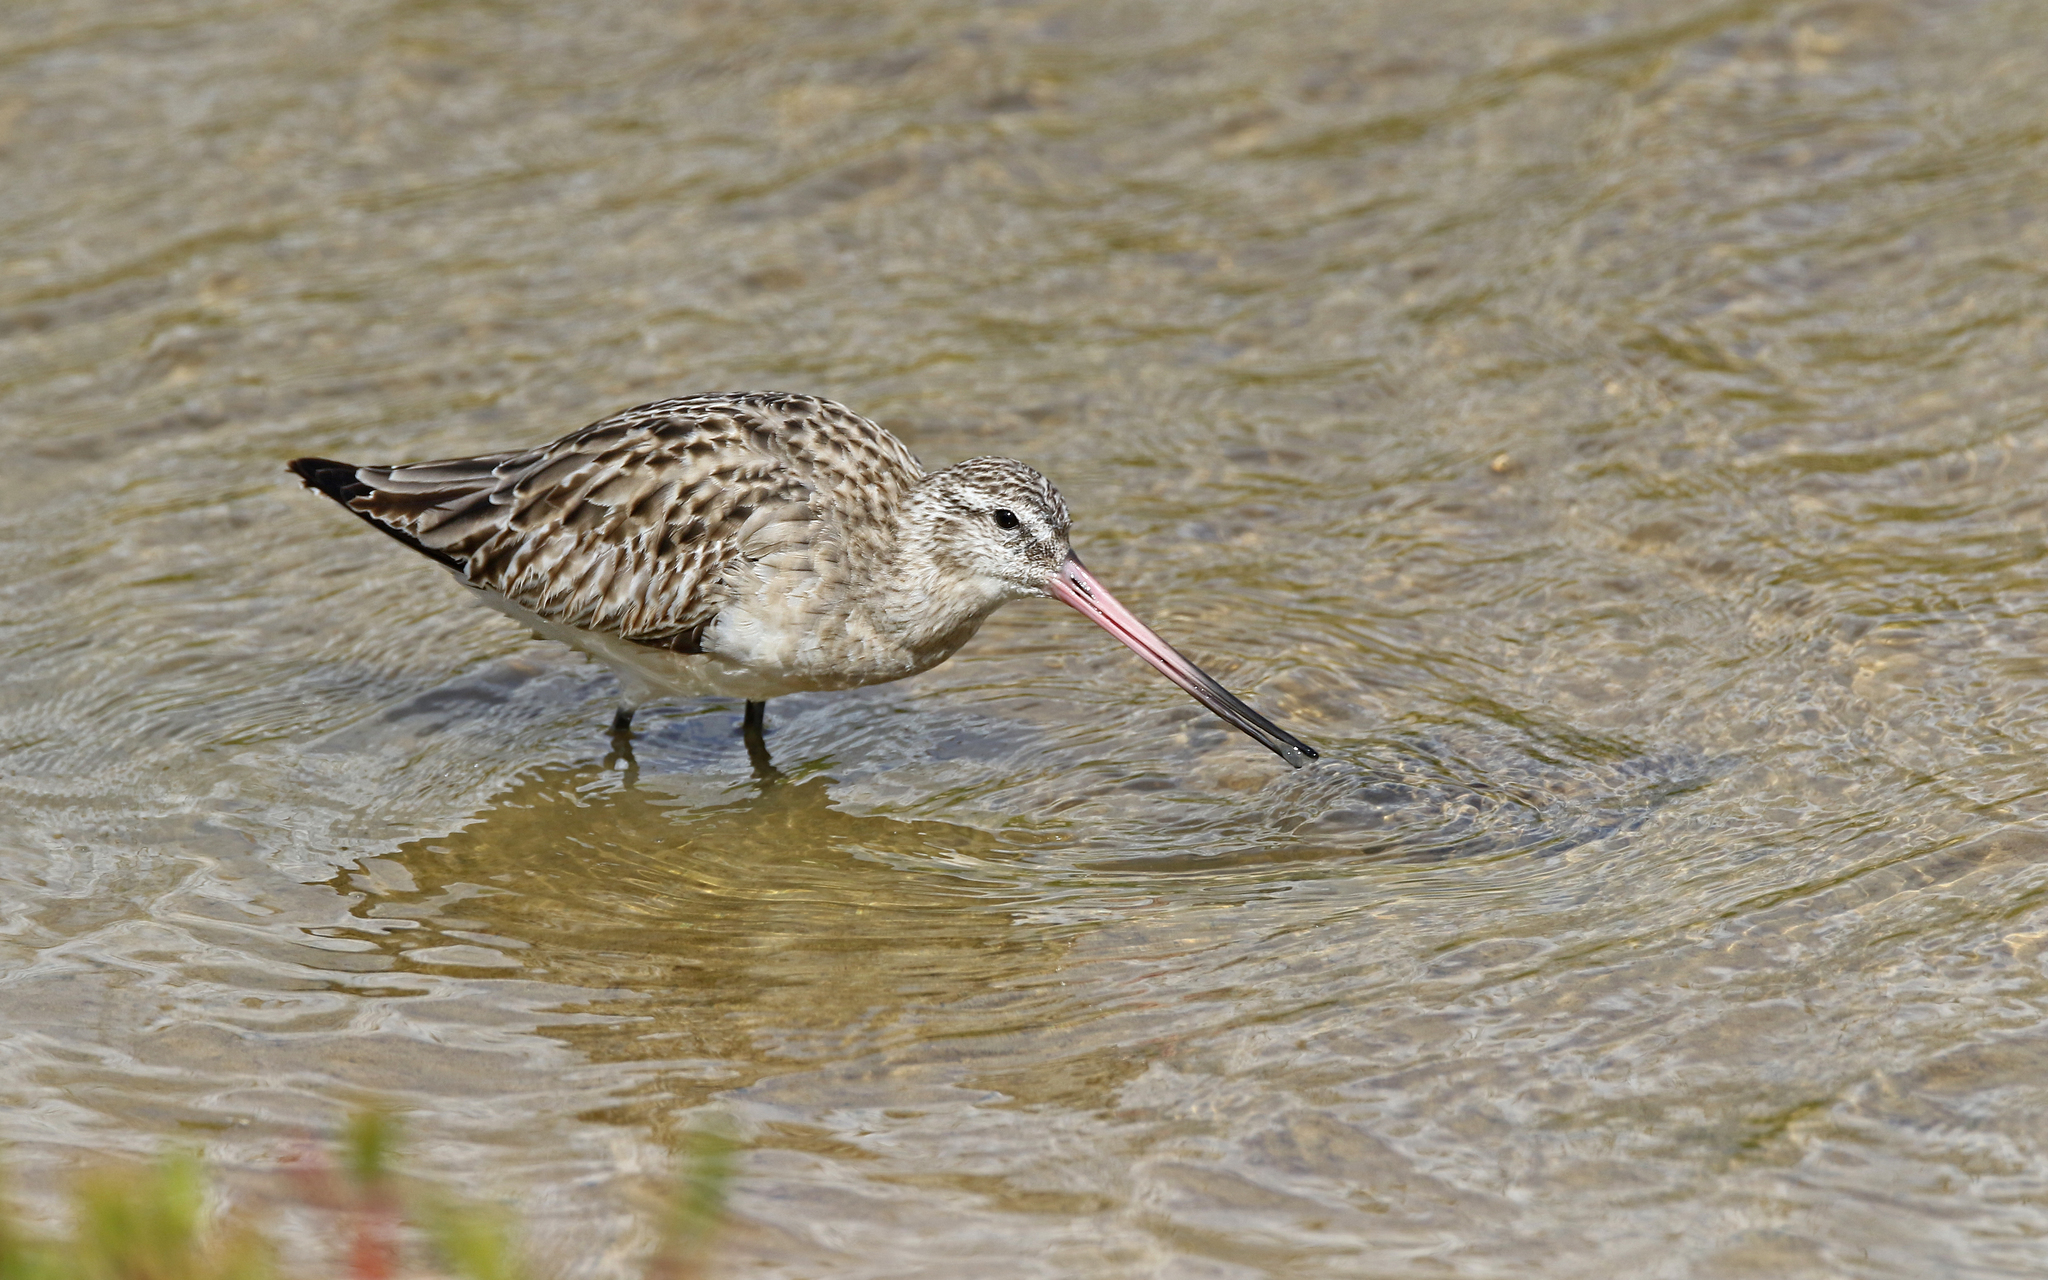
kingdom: Animalia
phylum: Chordata
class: Aves
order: Charadriiformes
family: Scolopacidae
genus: Limosa
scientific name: Limosa lapponica
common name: Bar-tailed godwit
